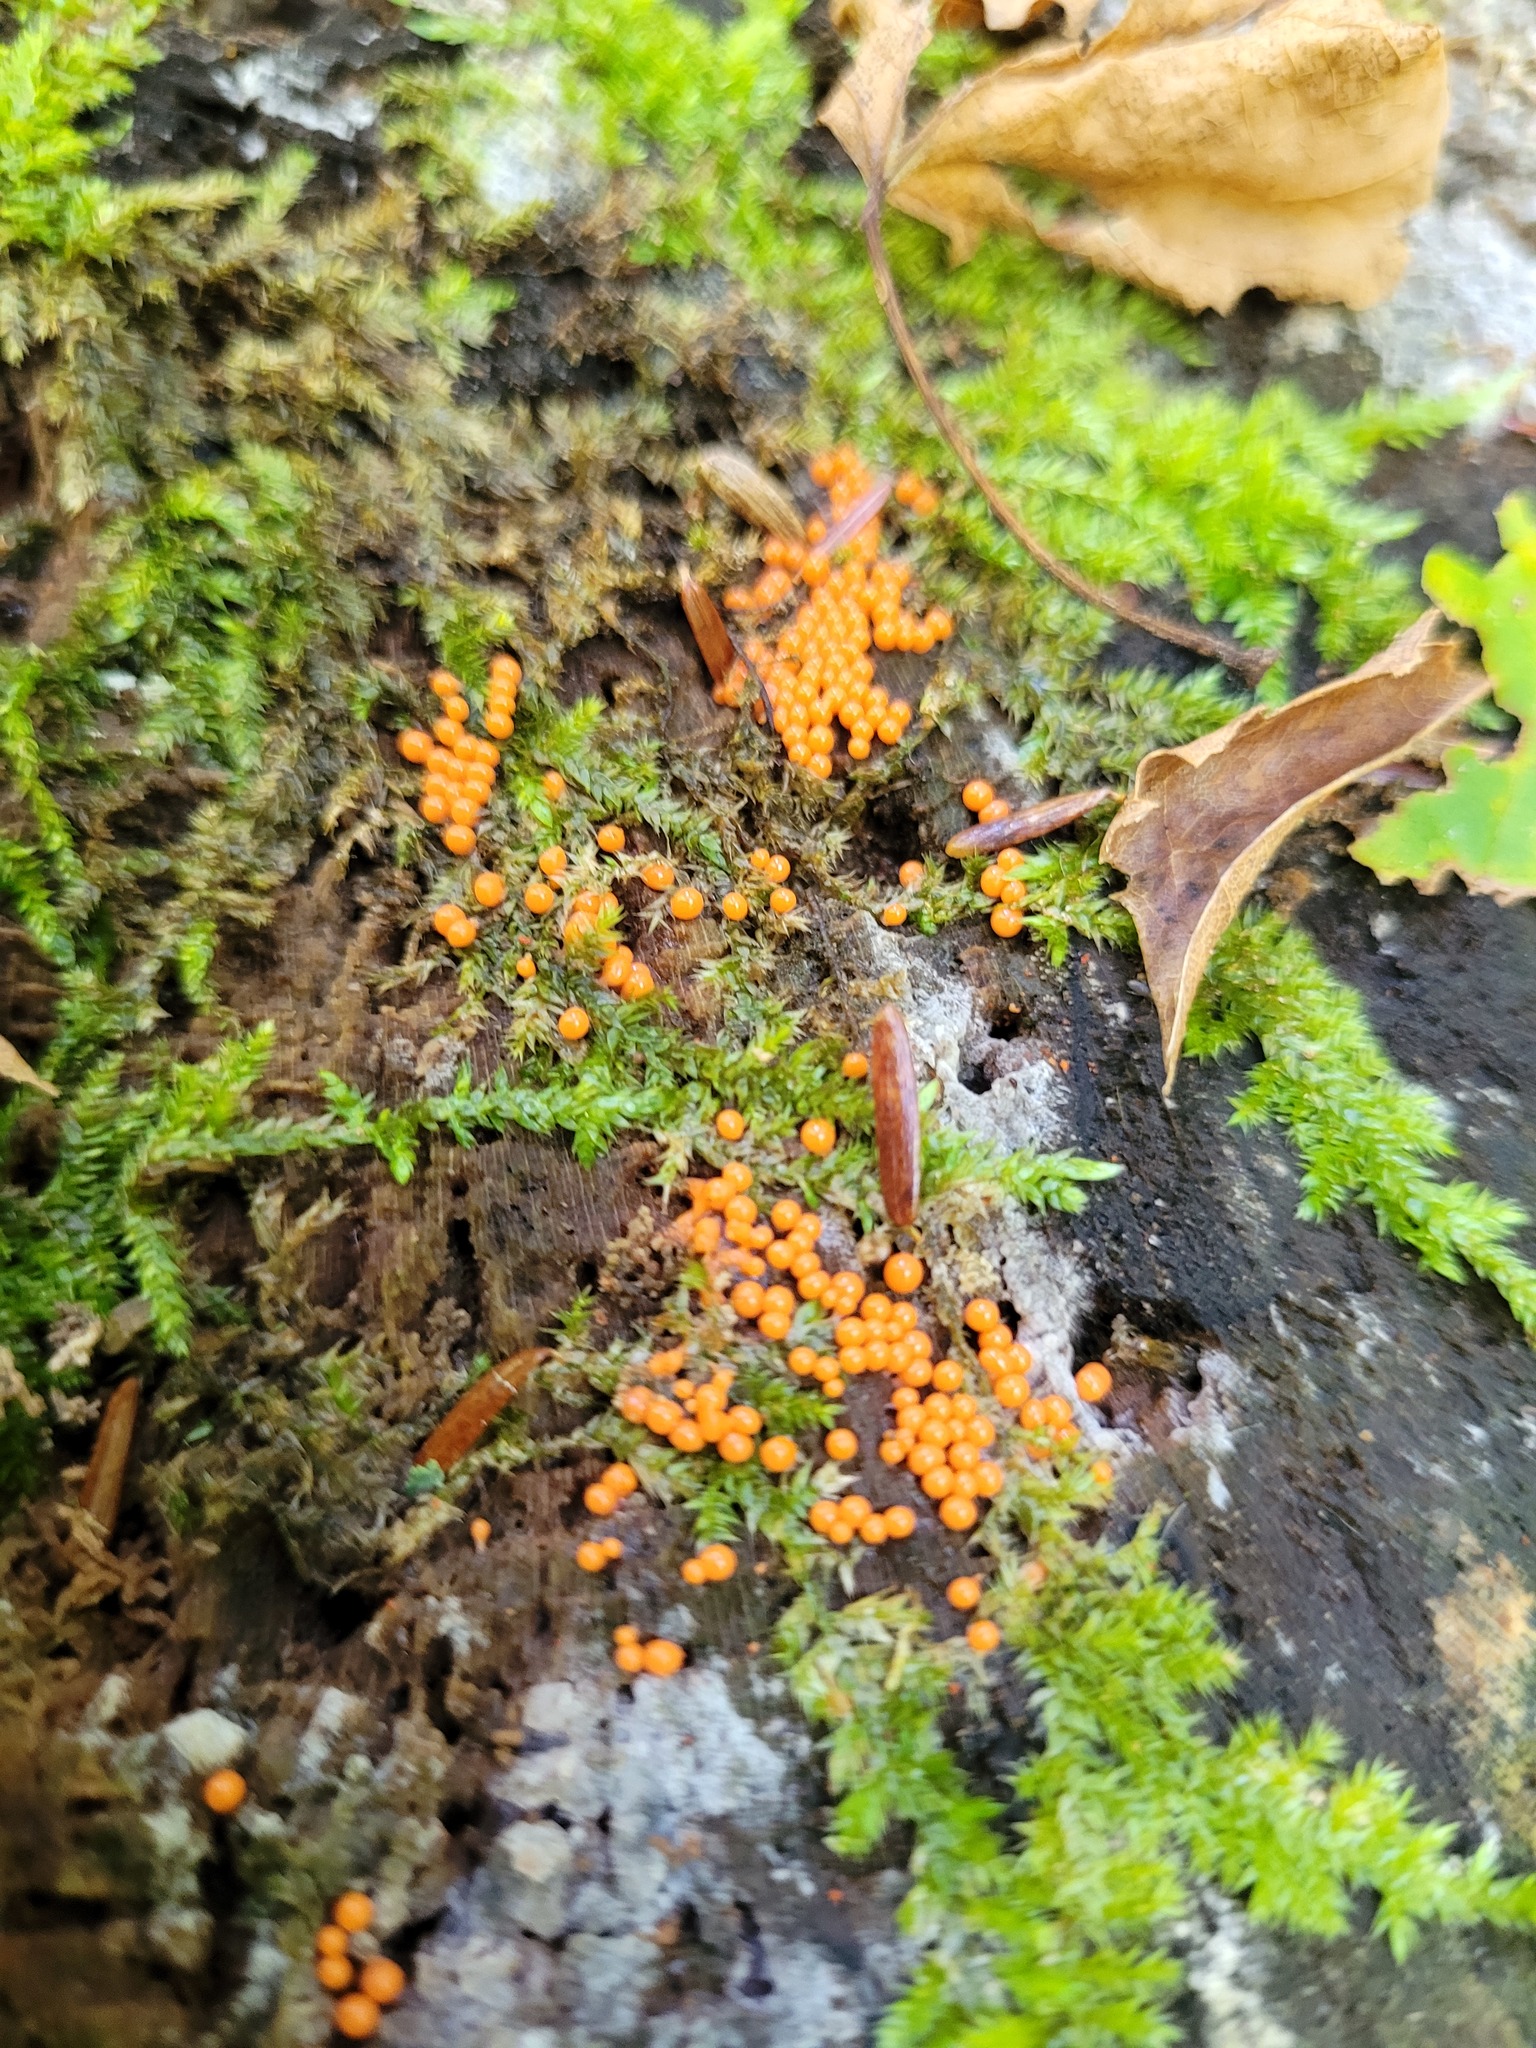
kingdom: Protozoa
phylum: Mycetozoa
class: Myxomycetes
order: Trichiales
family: Arcyriaceae
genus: Hemitrichia
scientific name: Hemitrichia decipiens
